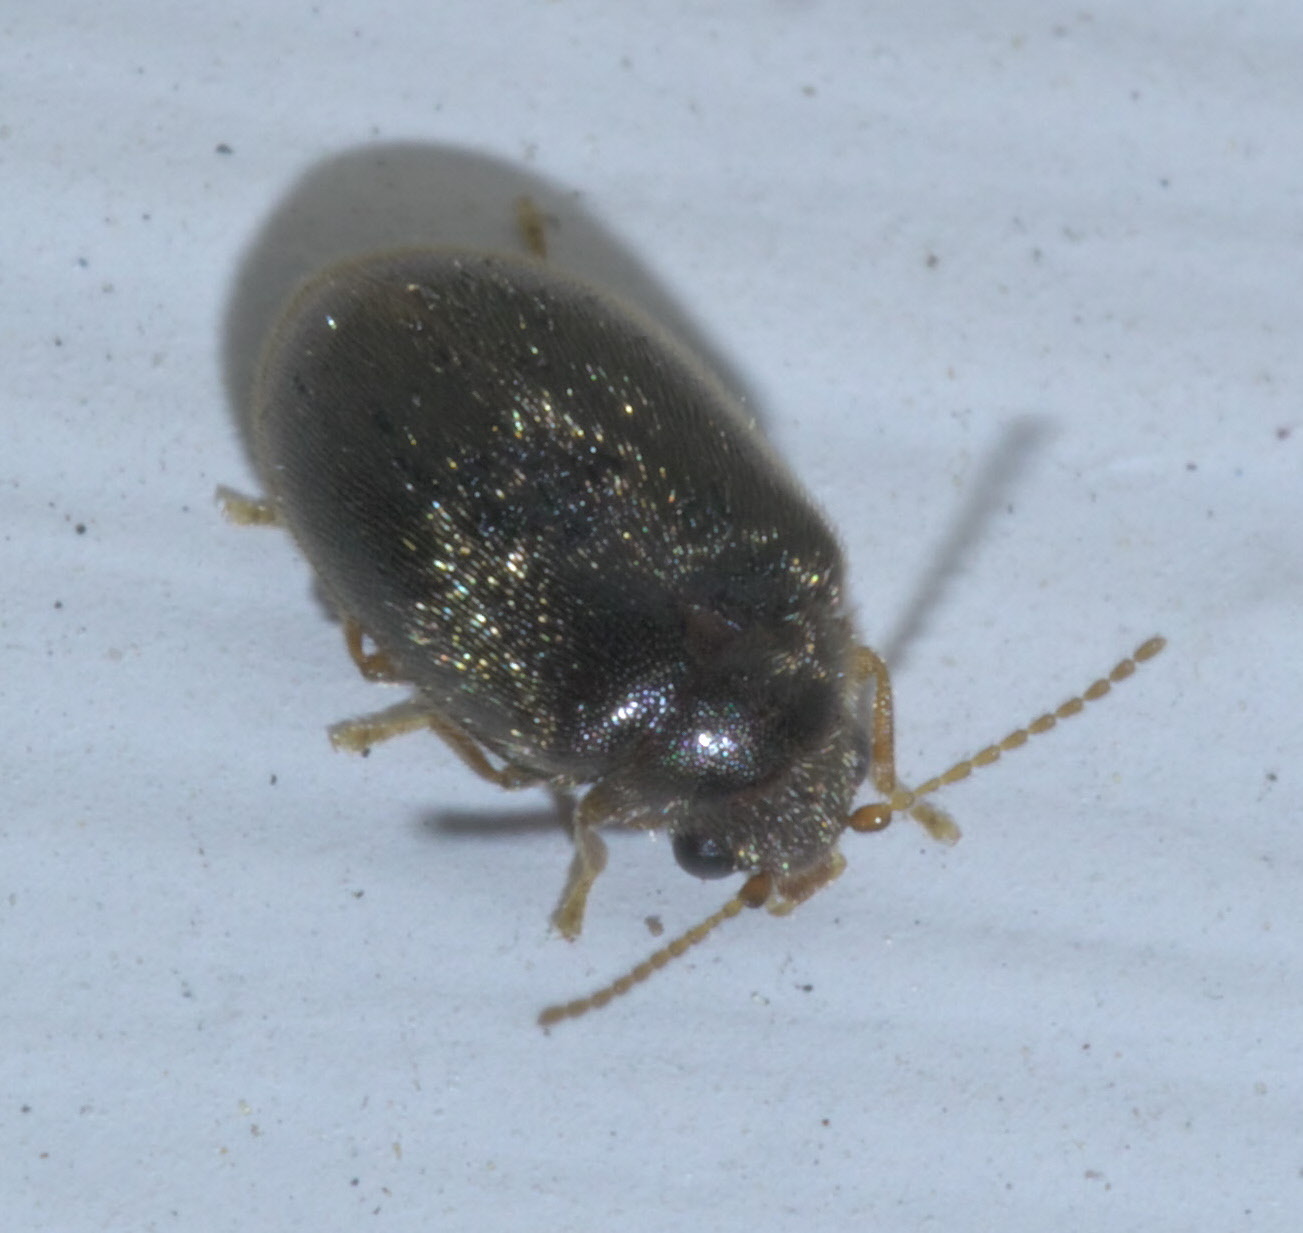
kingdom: Animalia
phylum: Arthropoda
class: Insecta
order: Coleoptera
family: Scirtidae
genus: Contacyphon
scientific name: Contacyphon
